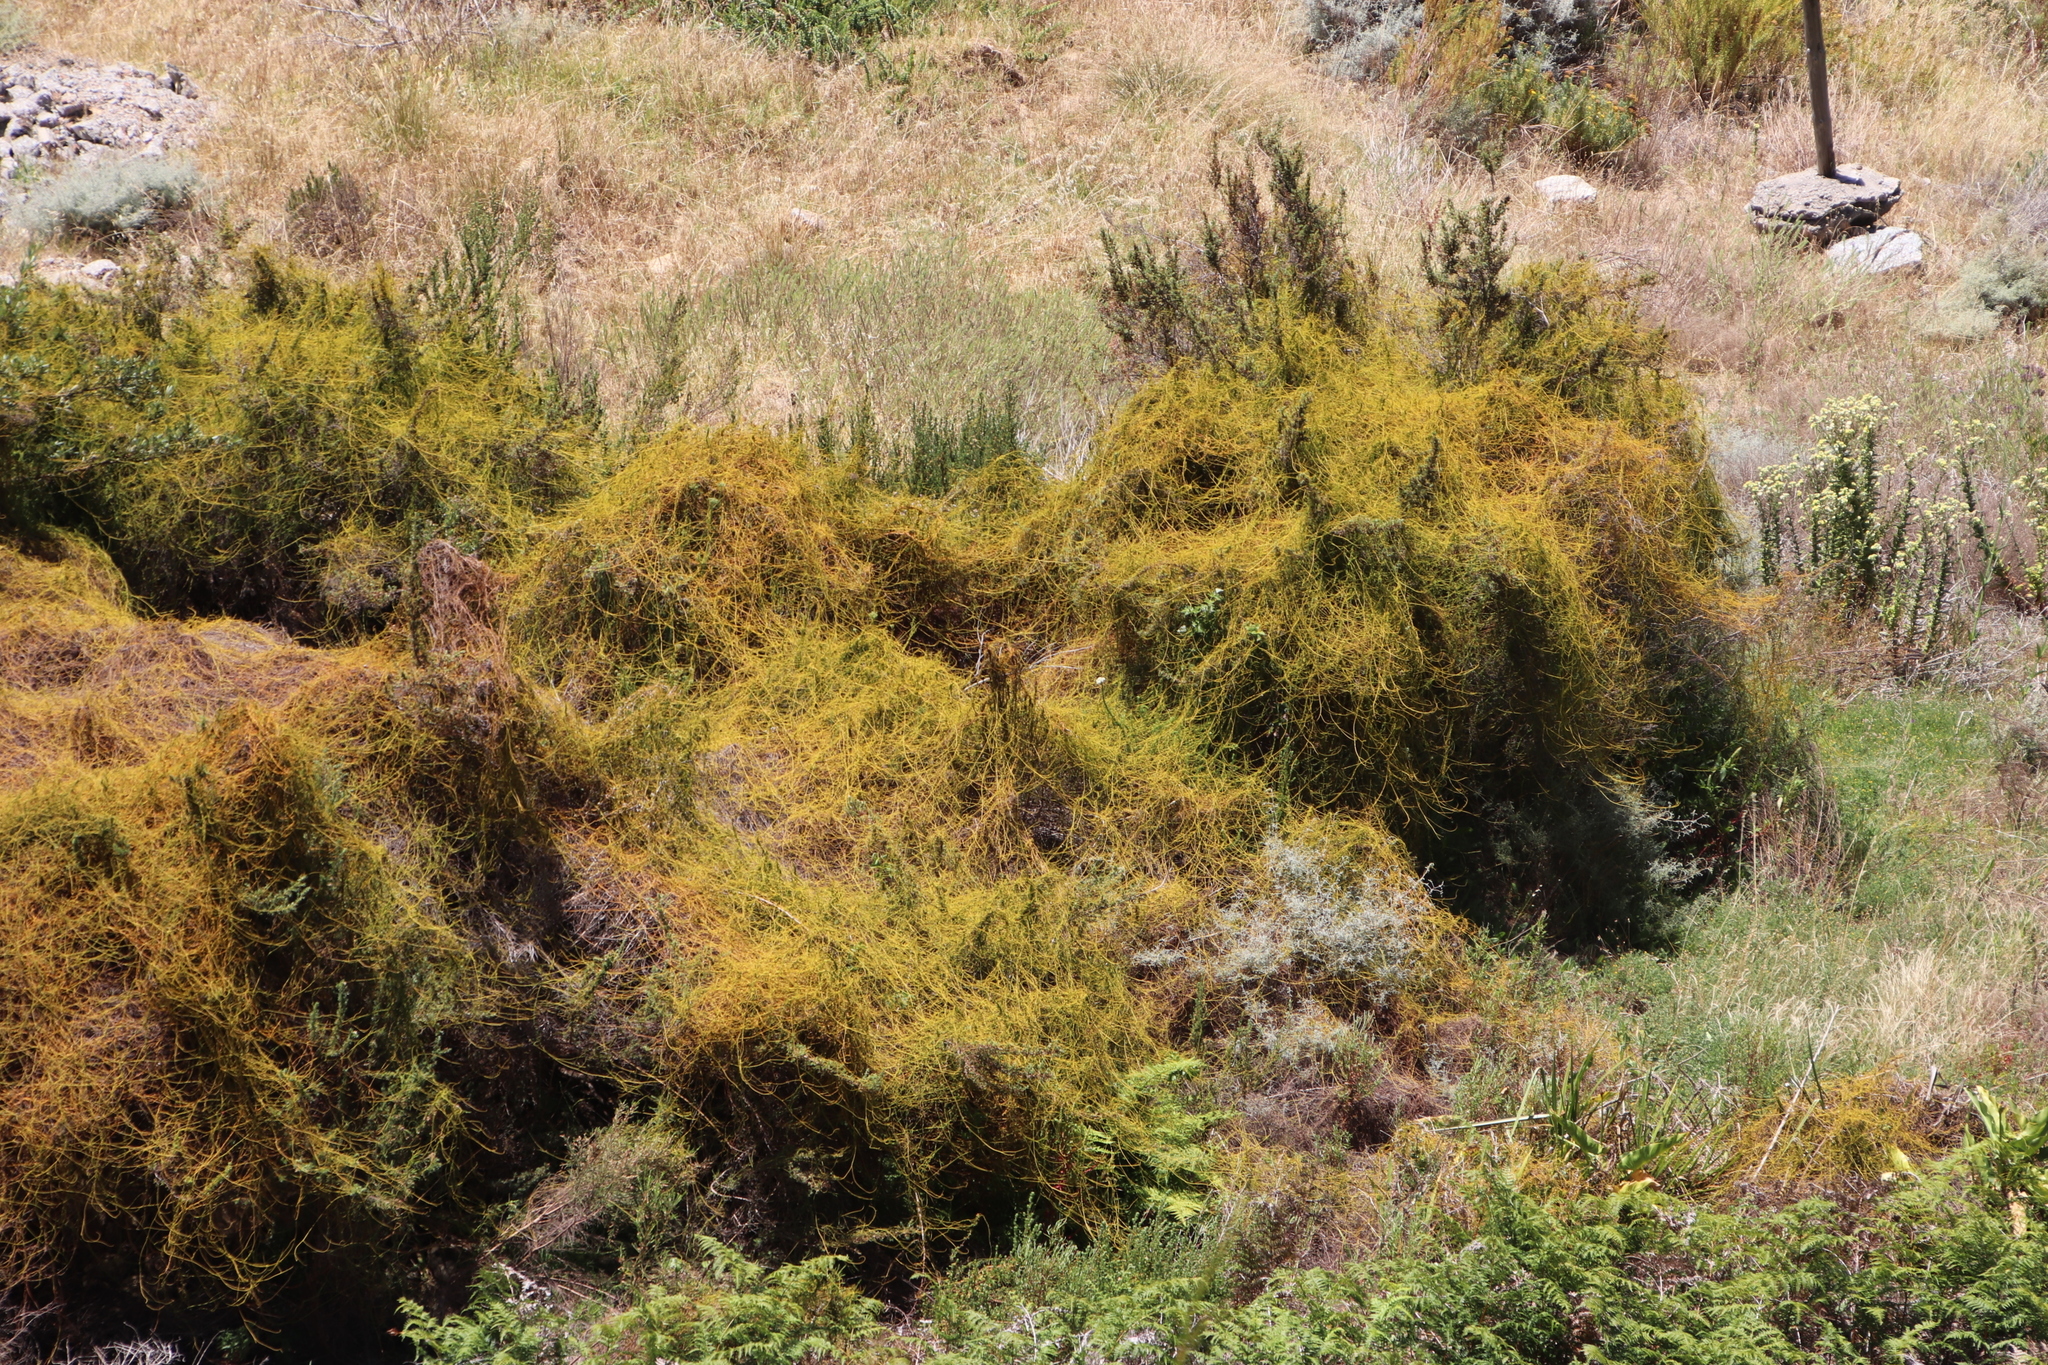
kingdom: Plantae
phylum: Tracheophyta
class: Magnoliopsida
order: Laurales
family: Lauraceae
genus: Cassytha
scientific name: Cassytha ciliolata
